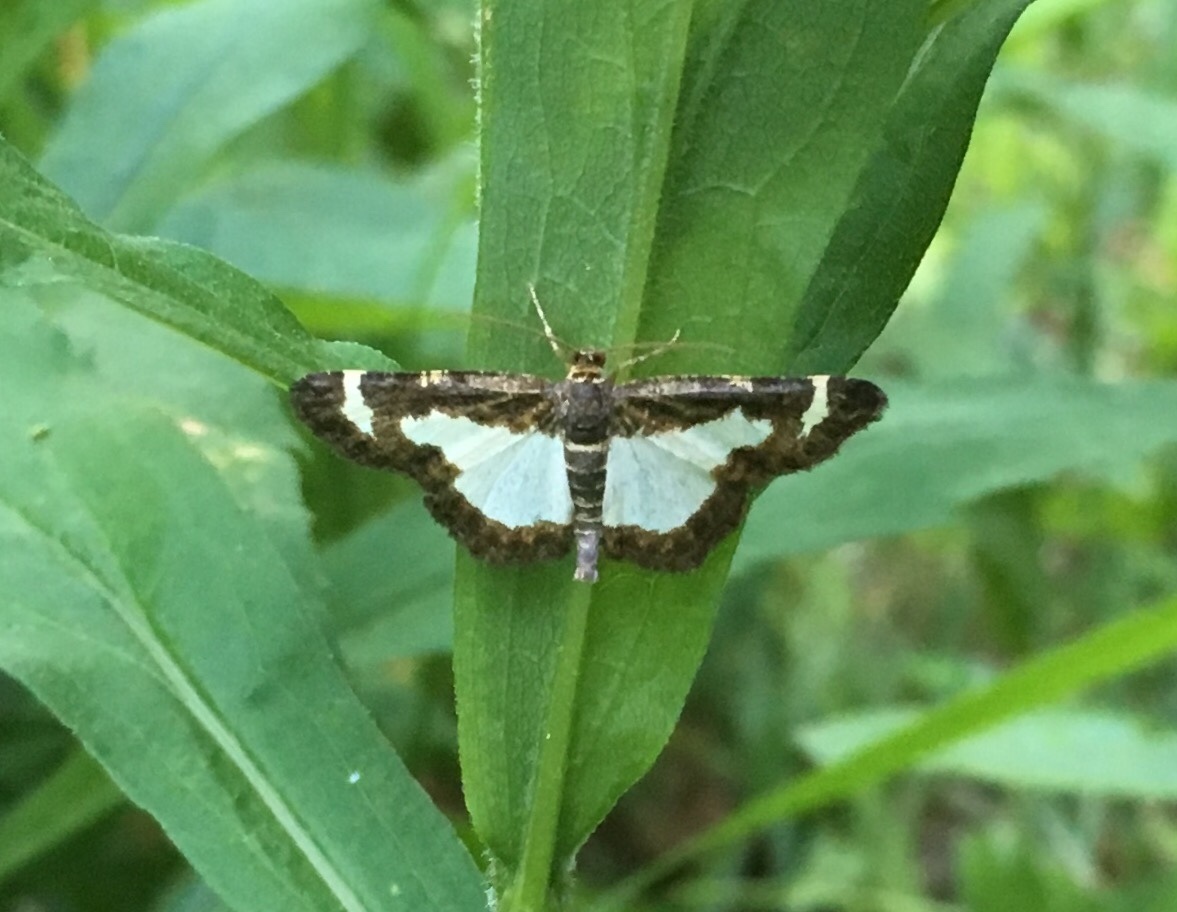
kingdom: Animalia
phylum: Arthropoda
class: Insecta
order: Lepidoptera
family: Geometridae
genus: Heliomata
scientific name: Heliomata cycladata
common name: Common spring moth
